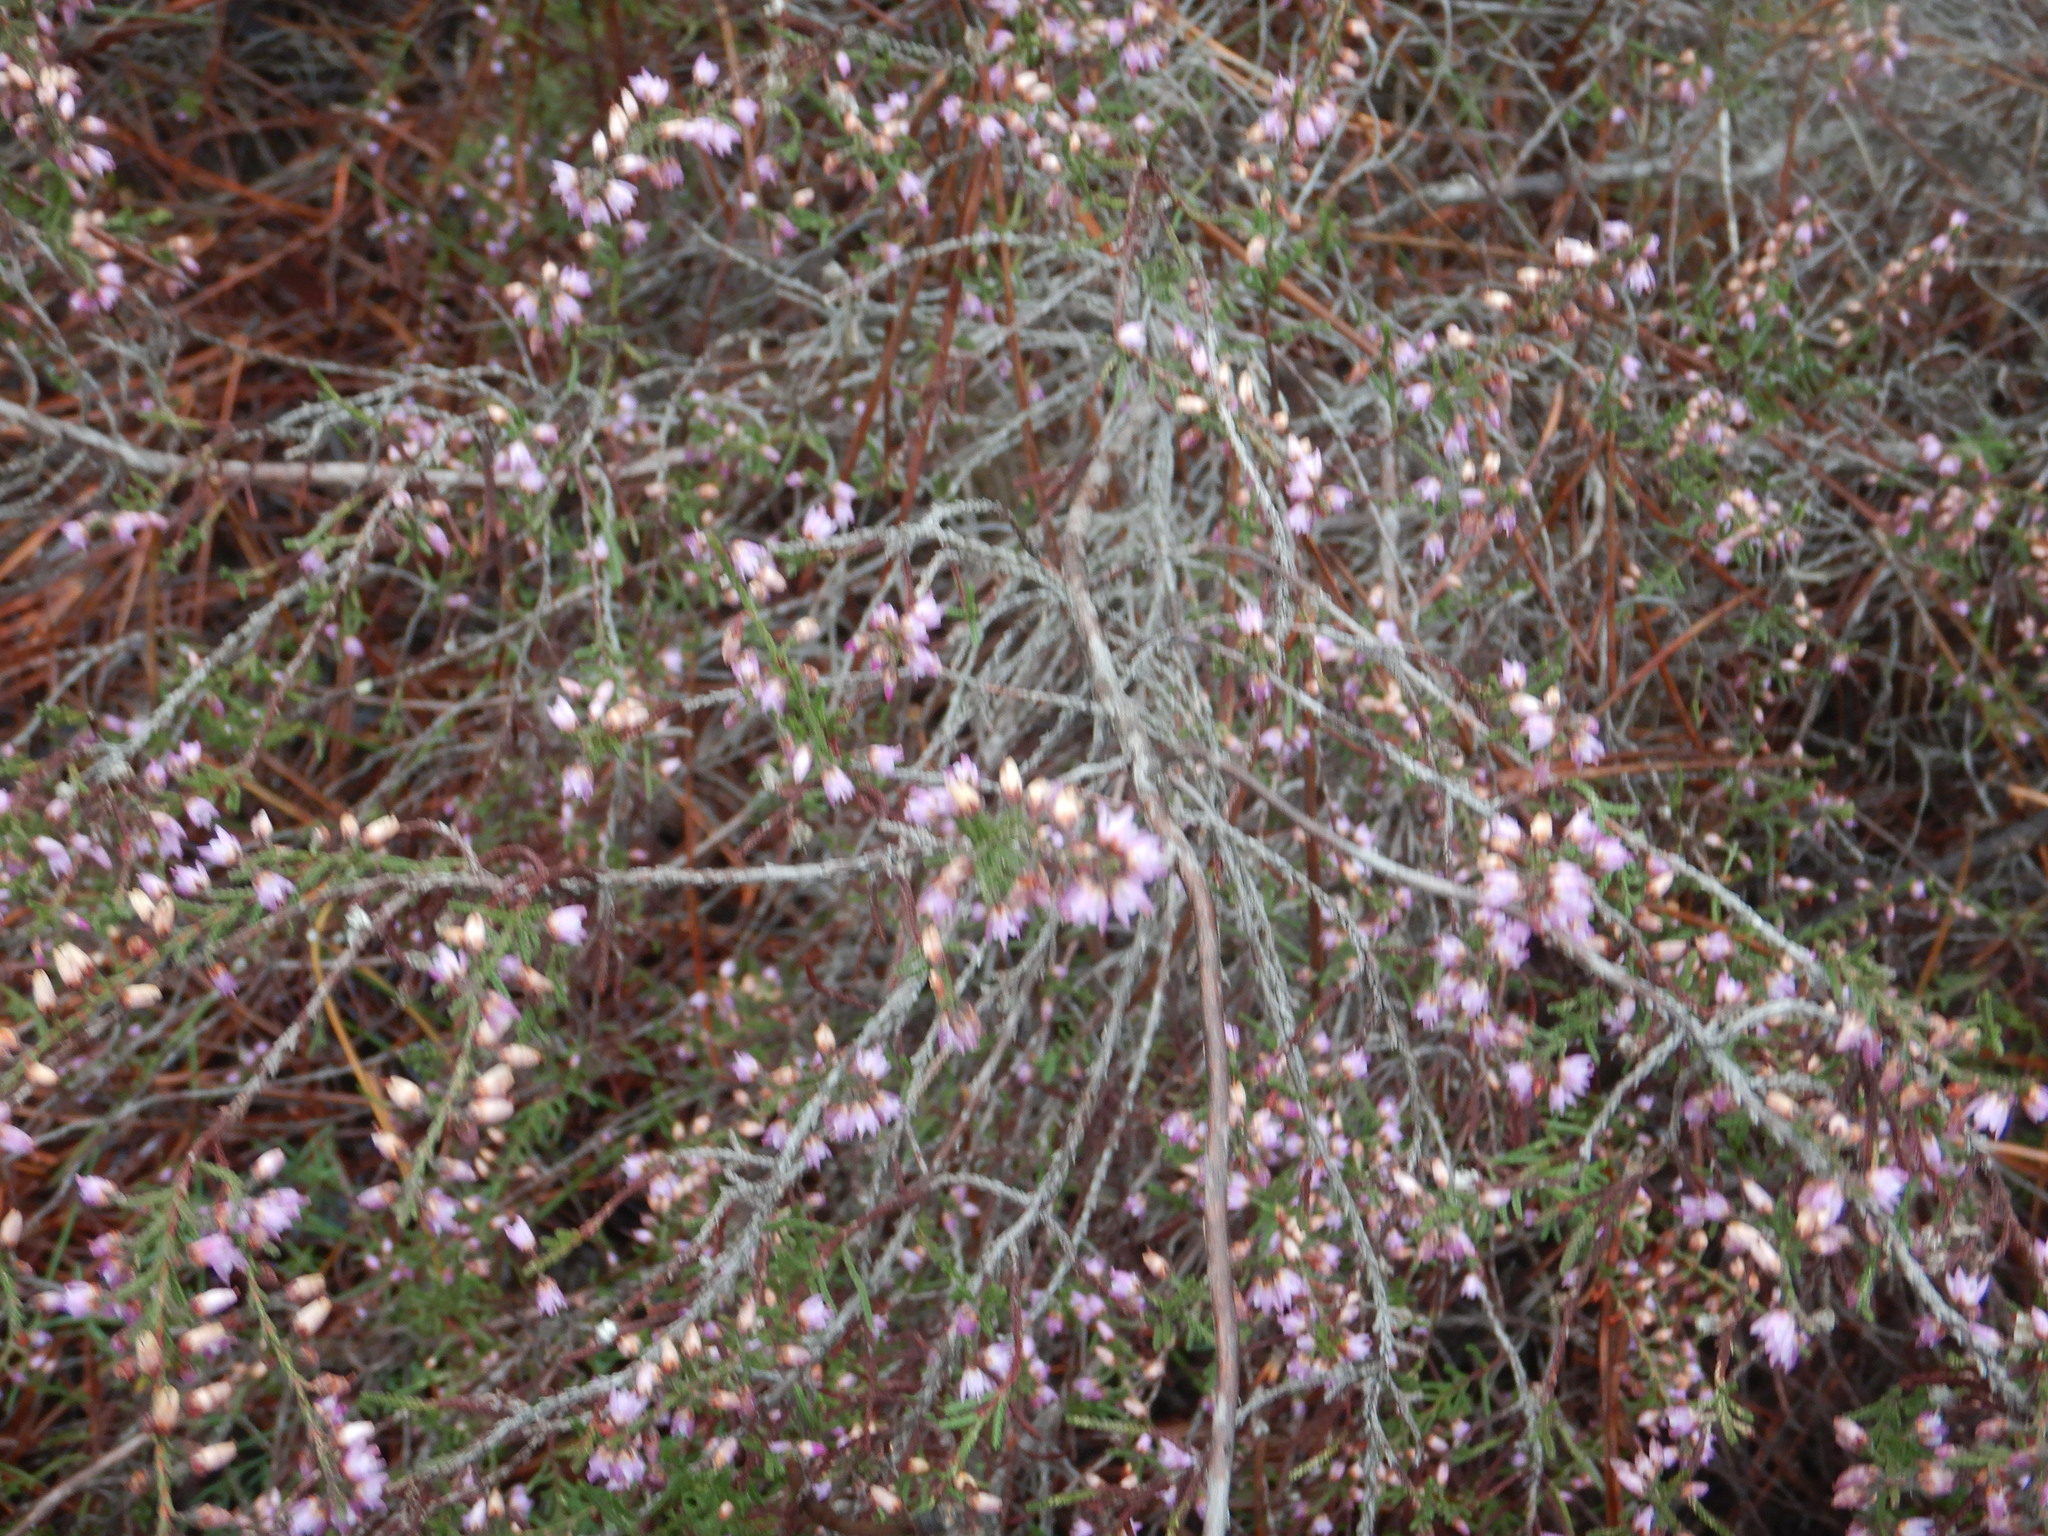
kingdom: Plantae
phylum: Tracheophyta
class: Magnoliopsida
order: Ericales
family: Ericaceae
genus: Calluna
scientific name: Calluna vulgaris
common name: Heather
